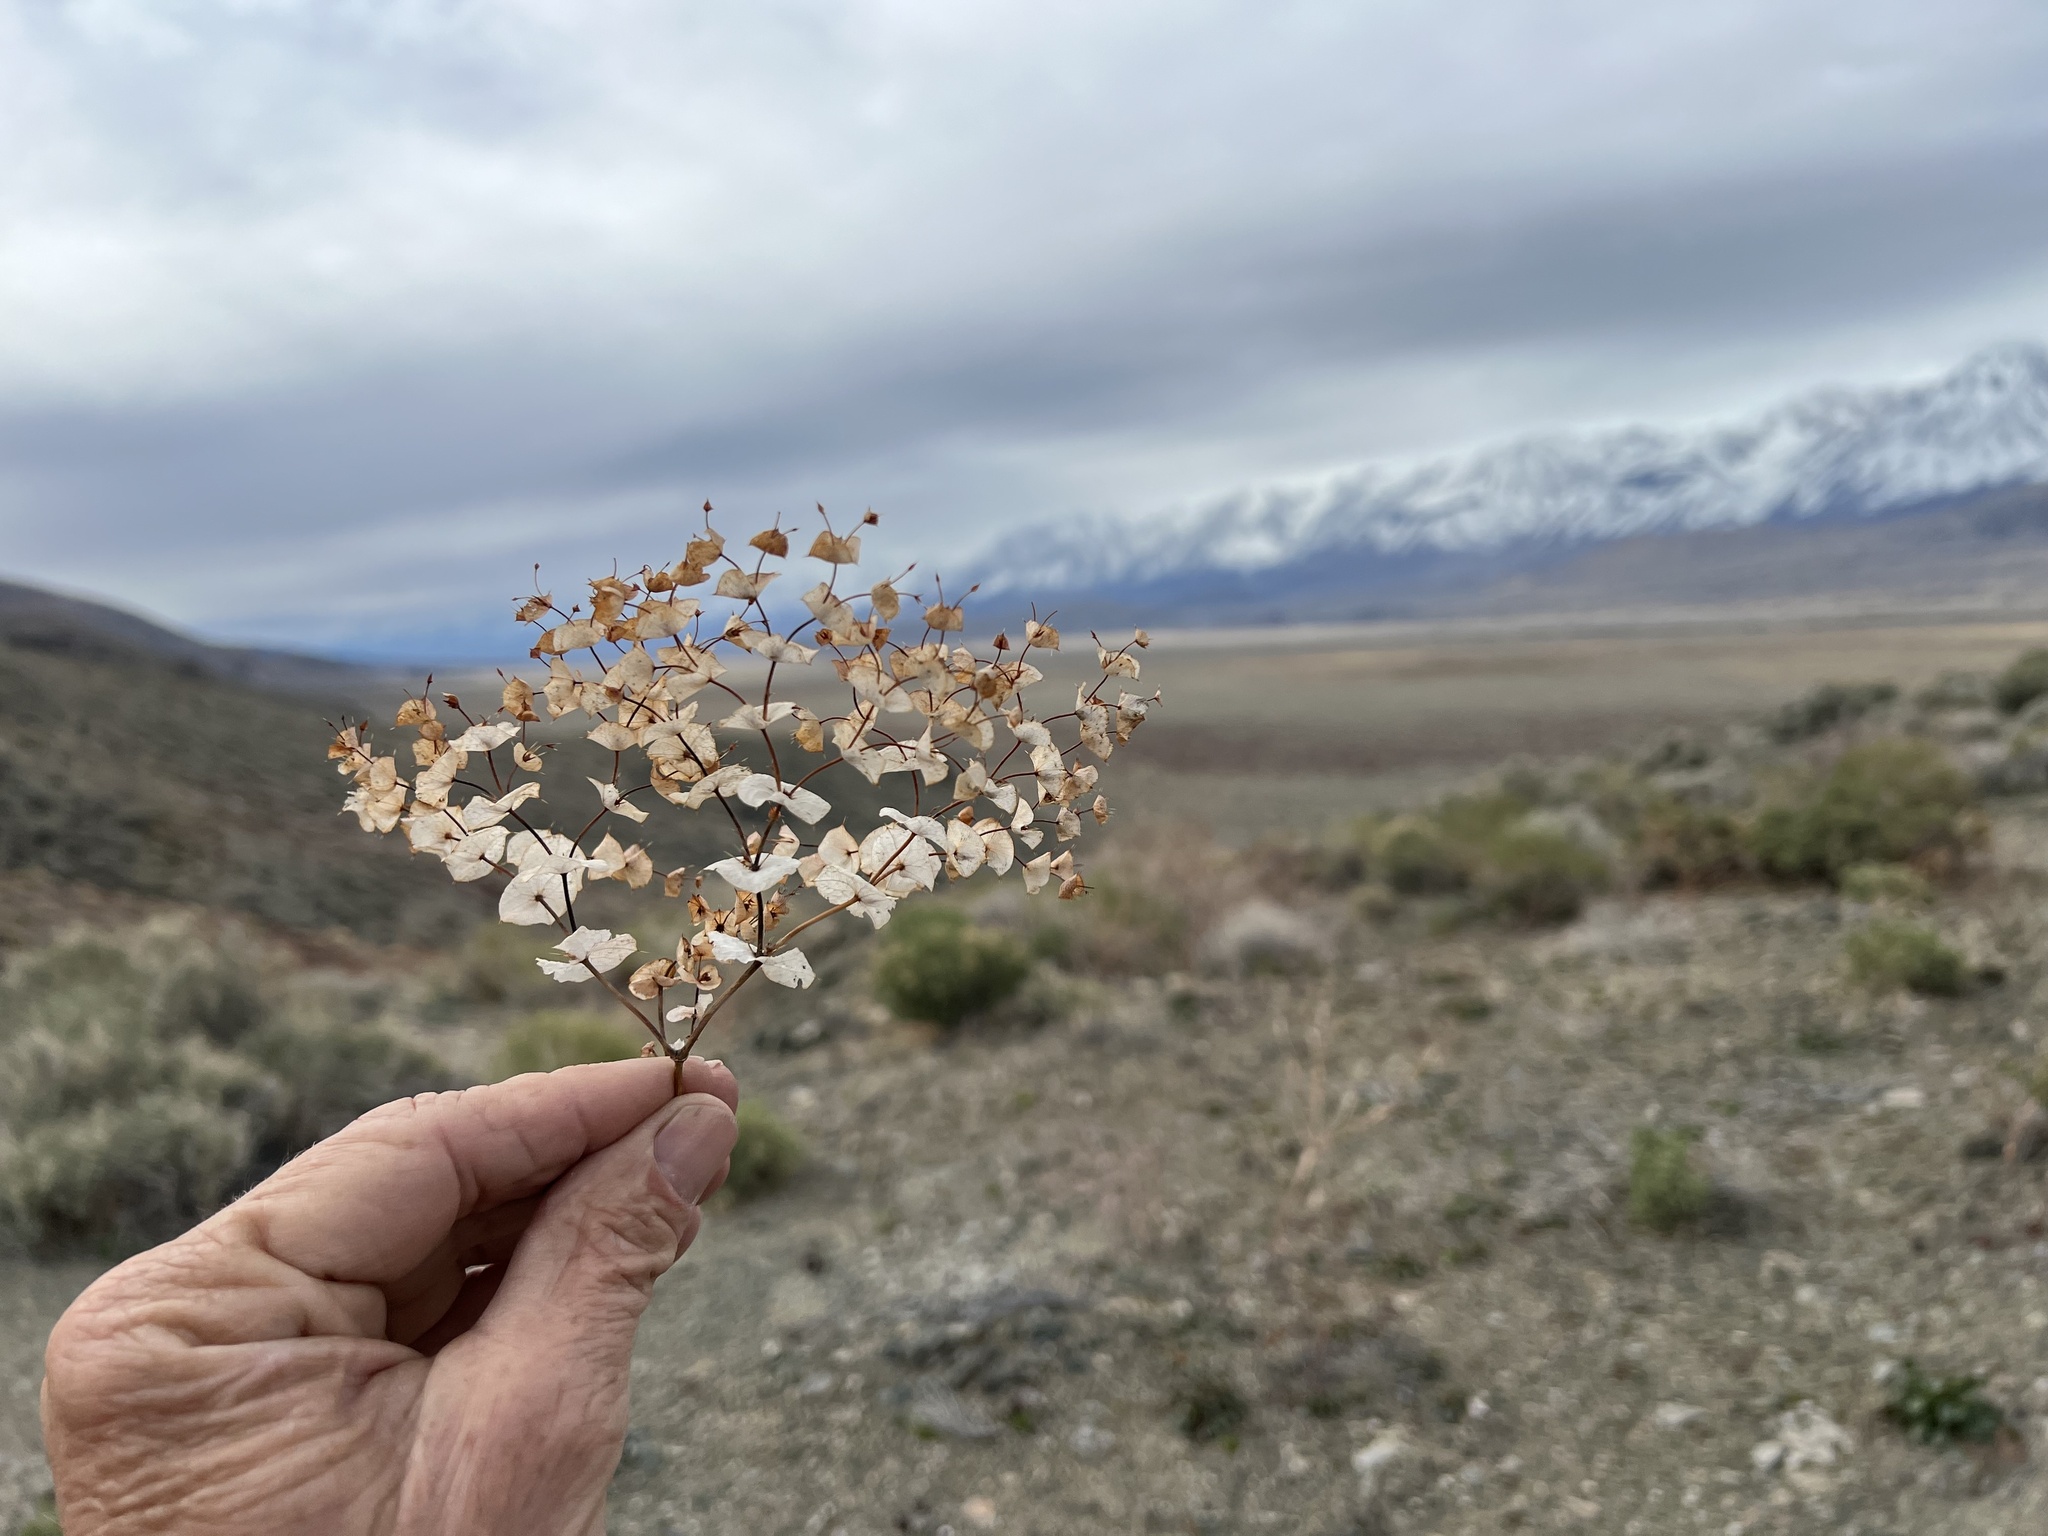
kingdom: Plantae
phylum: Tracheophyta
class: Magnoliopsida
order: Caryophyllales
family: Polygonaceae
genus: Oxytheca
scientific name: Oxytheca perfoliata
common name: Round-leaf puncturebract
